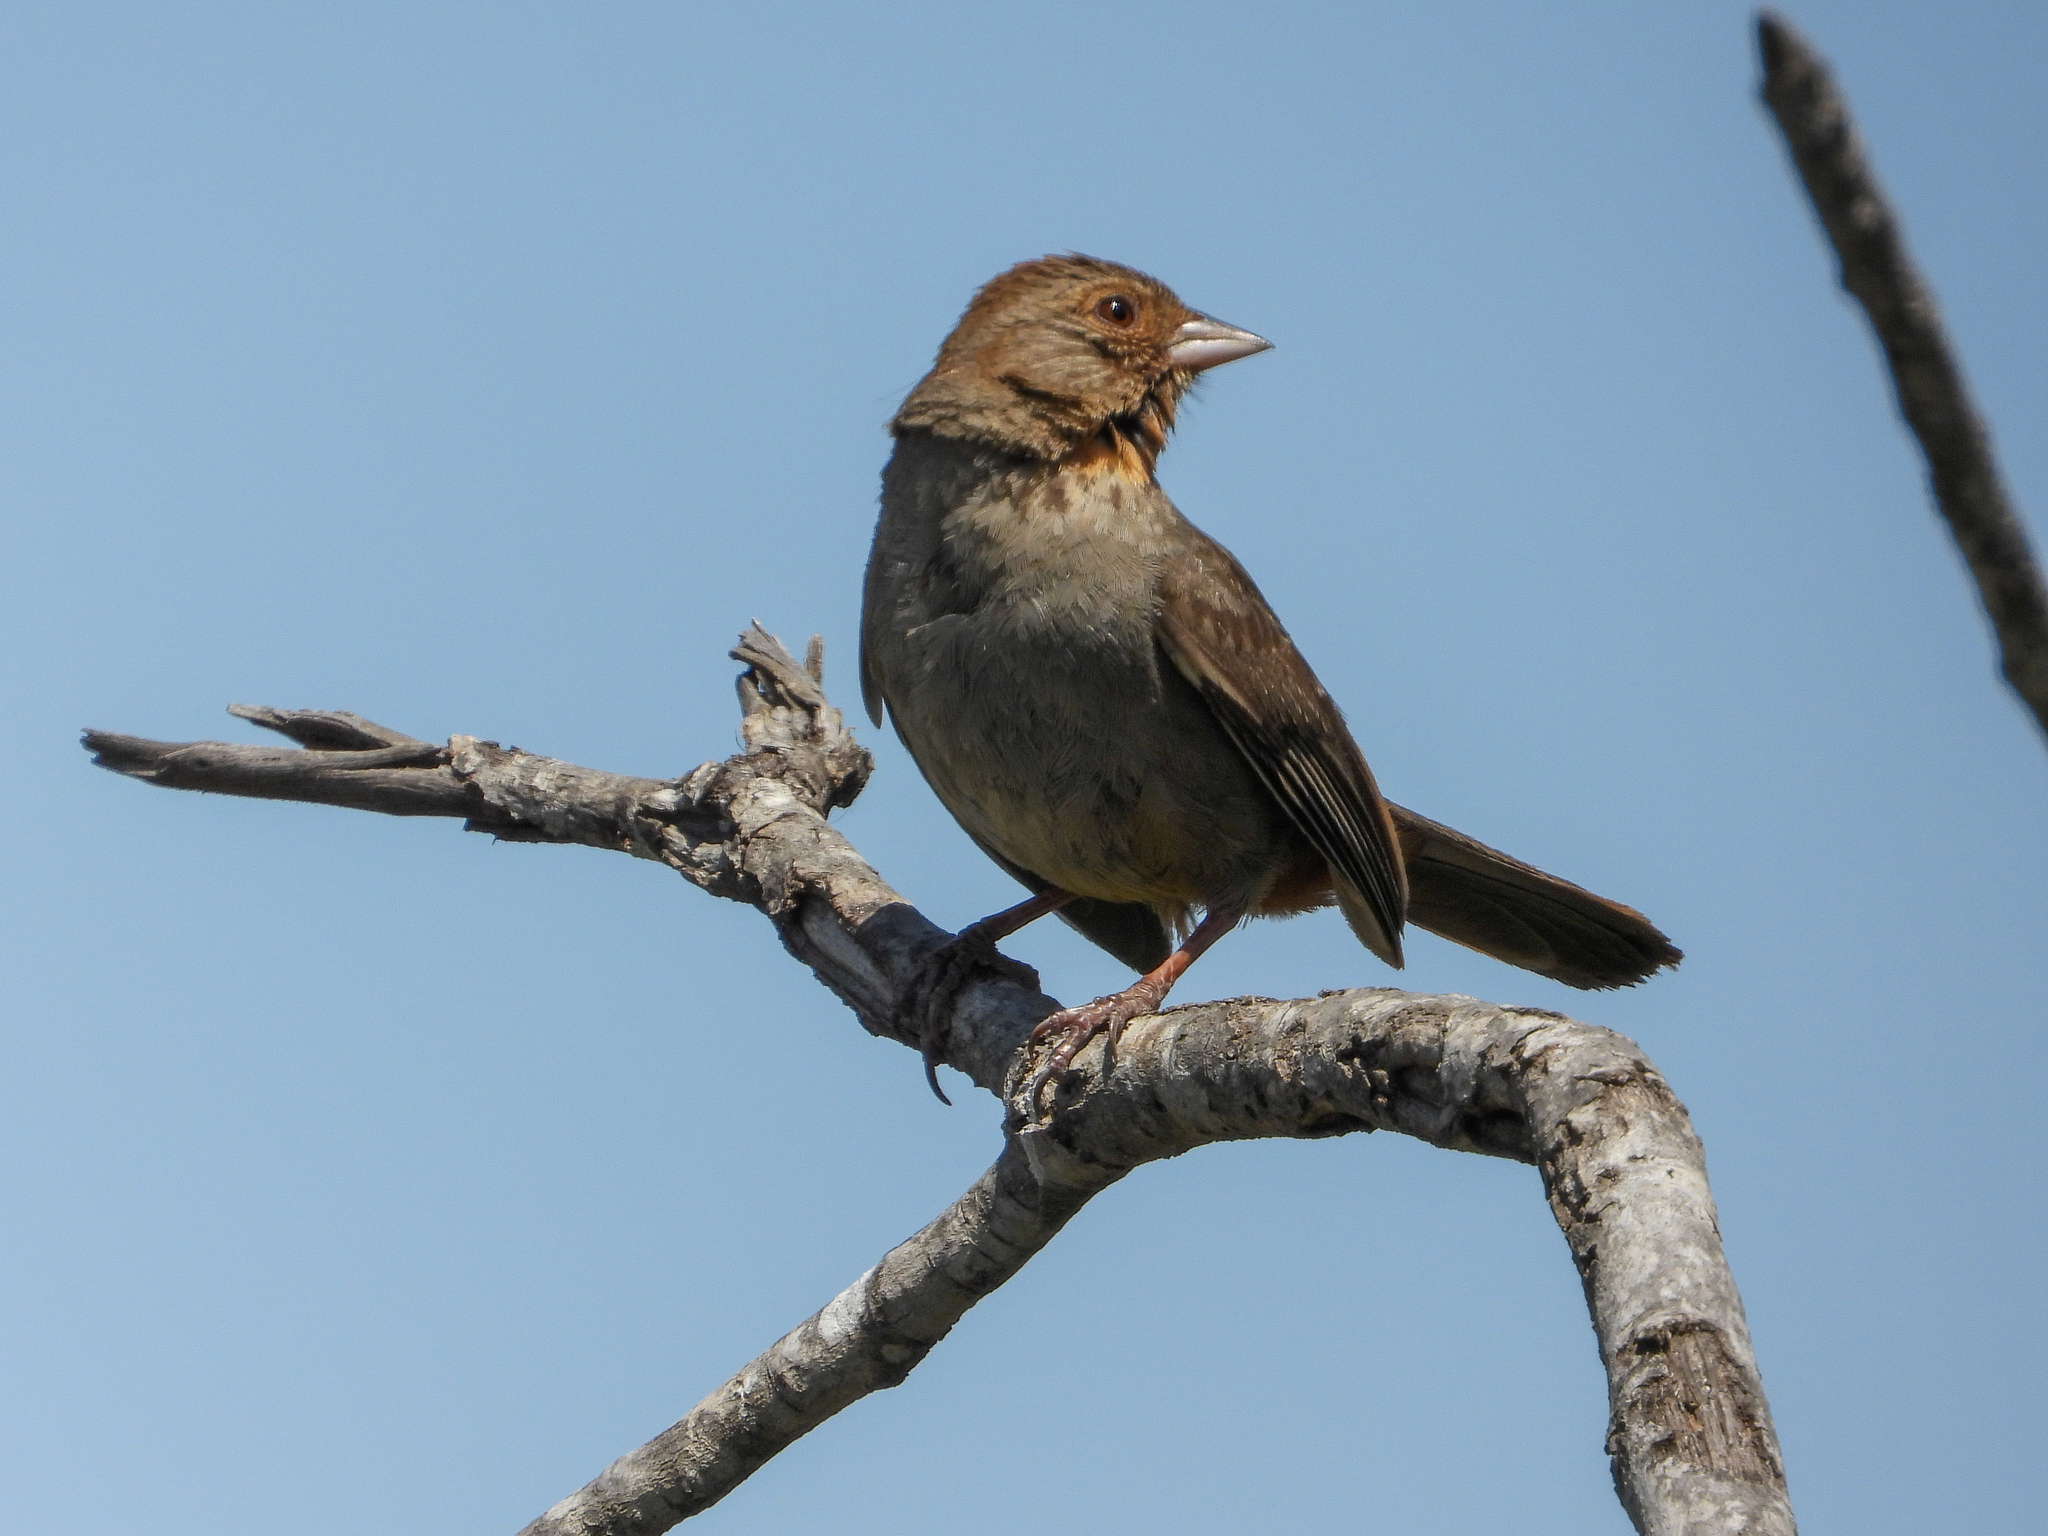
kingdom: Animalia
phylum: Chordata
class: Aves
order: Passeriformes
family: Passerellidae
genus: Melozone
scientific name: Melozone crissalis
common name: California towhee
